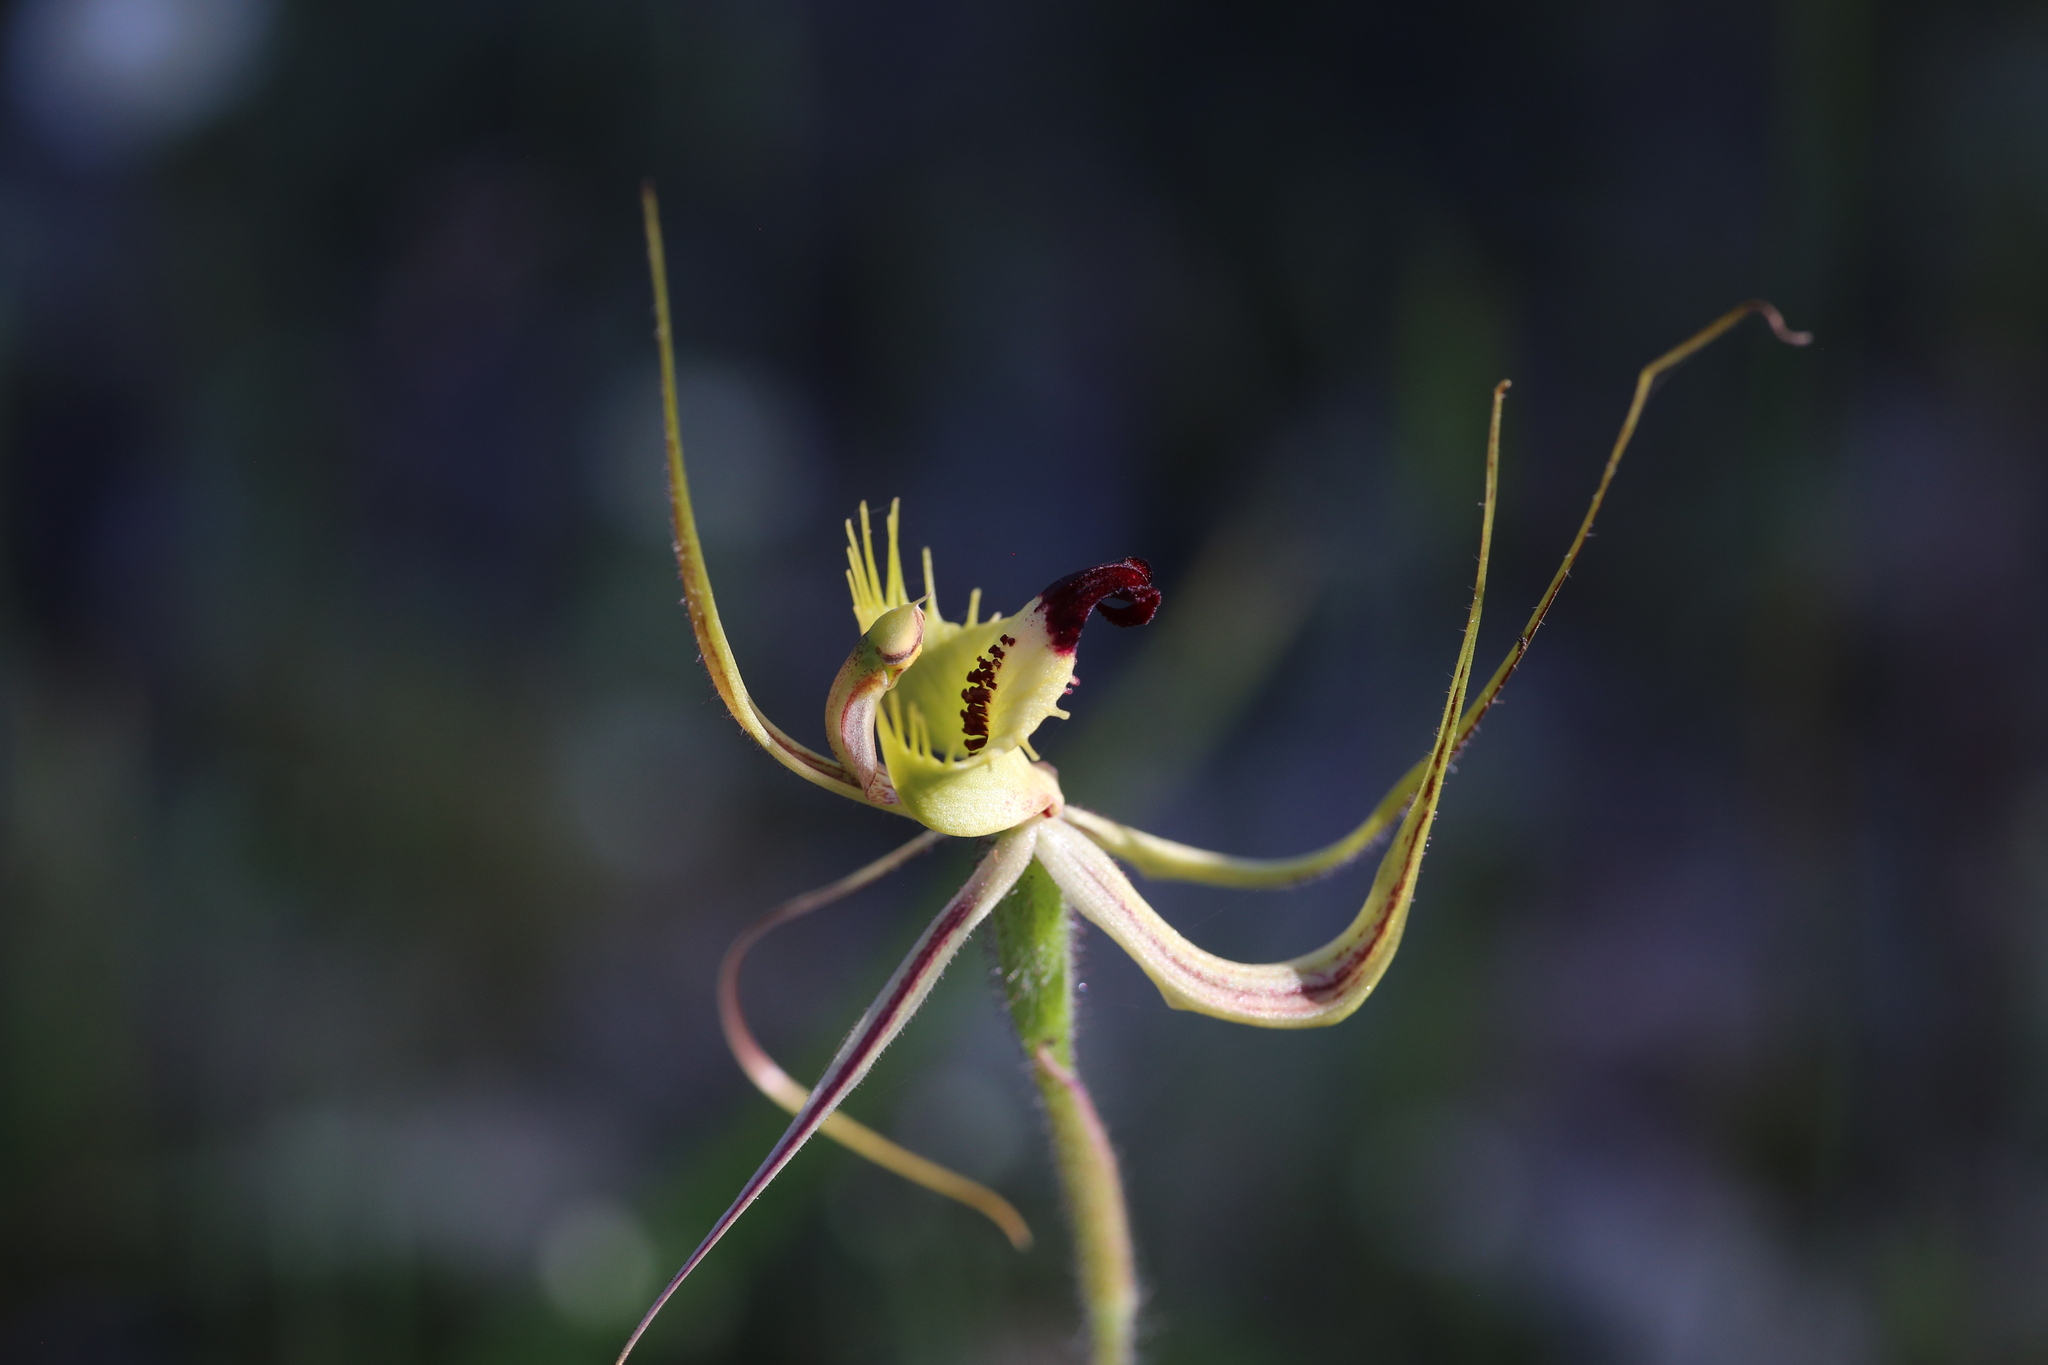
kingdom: Plantae
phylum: Tracheophyta
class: Liliopsida
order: Asparagales
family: Orchidaceae
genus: Caladenia
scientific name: Caladenia falcata
